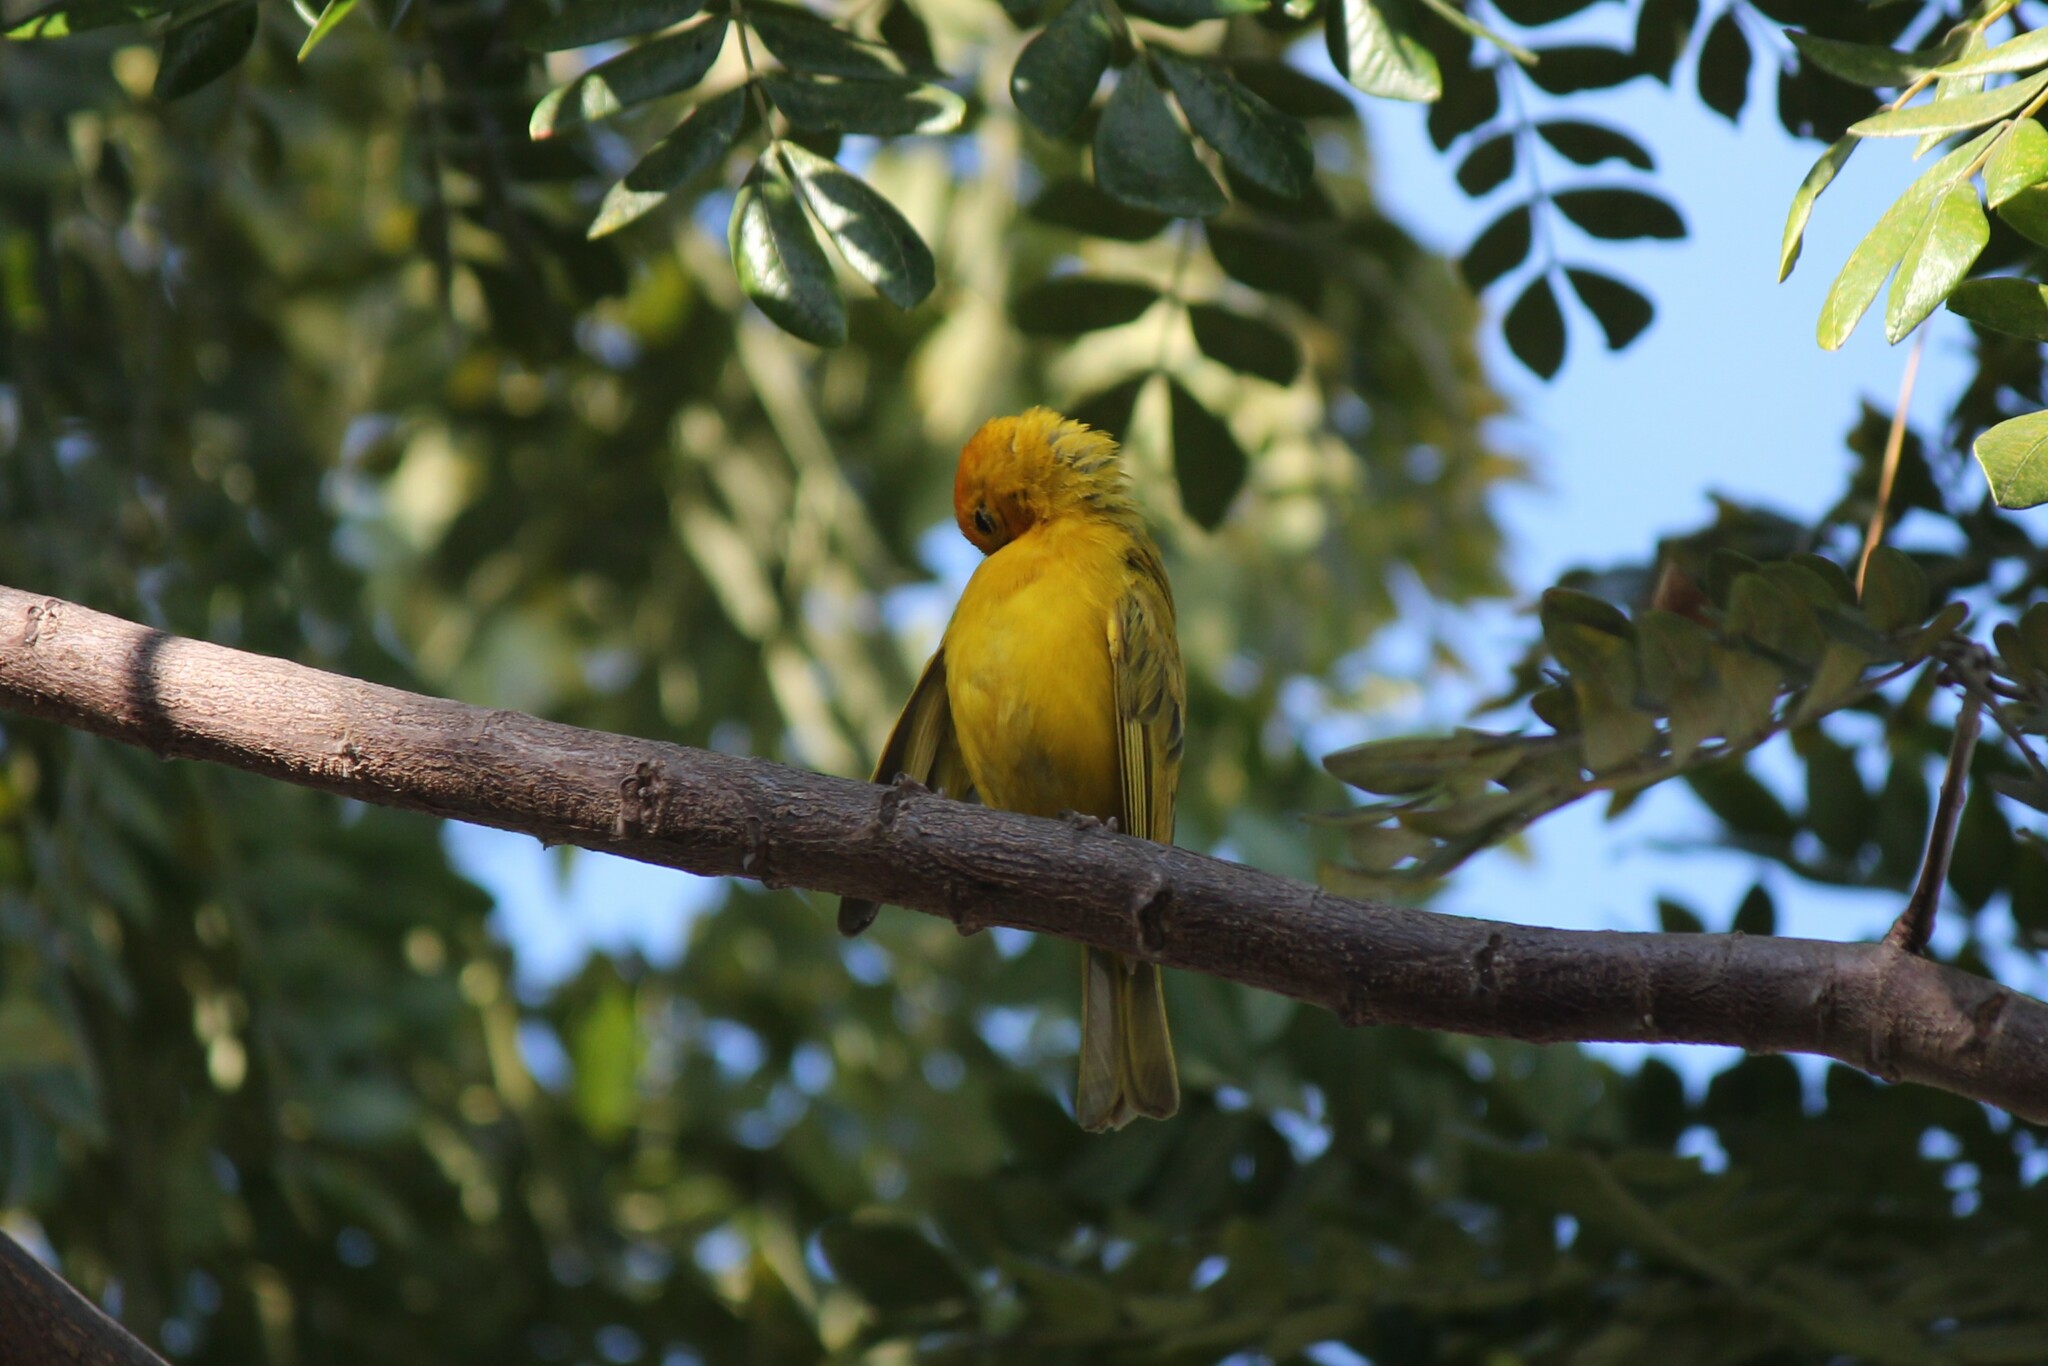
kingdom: Animalia
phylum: Chordata
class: Aves
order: Passeriformes
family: Thraupidae
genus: Sicalis
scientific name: Sicalis flaveola
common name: Saffron finch
